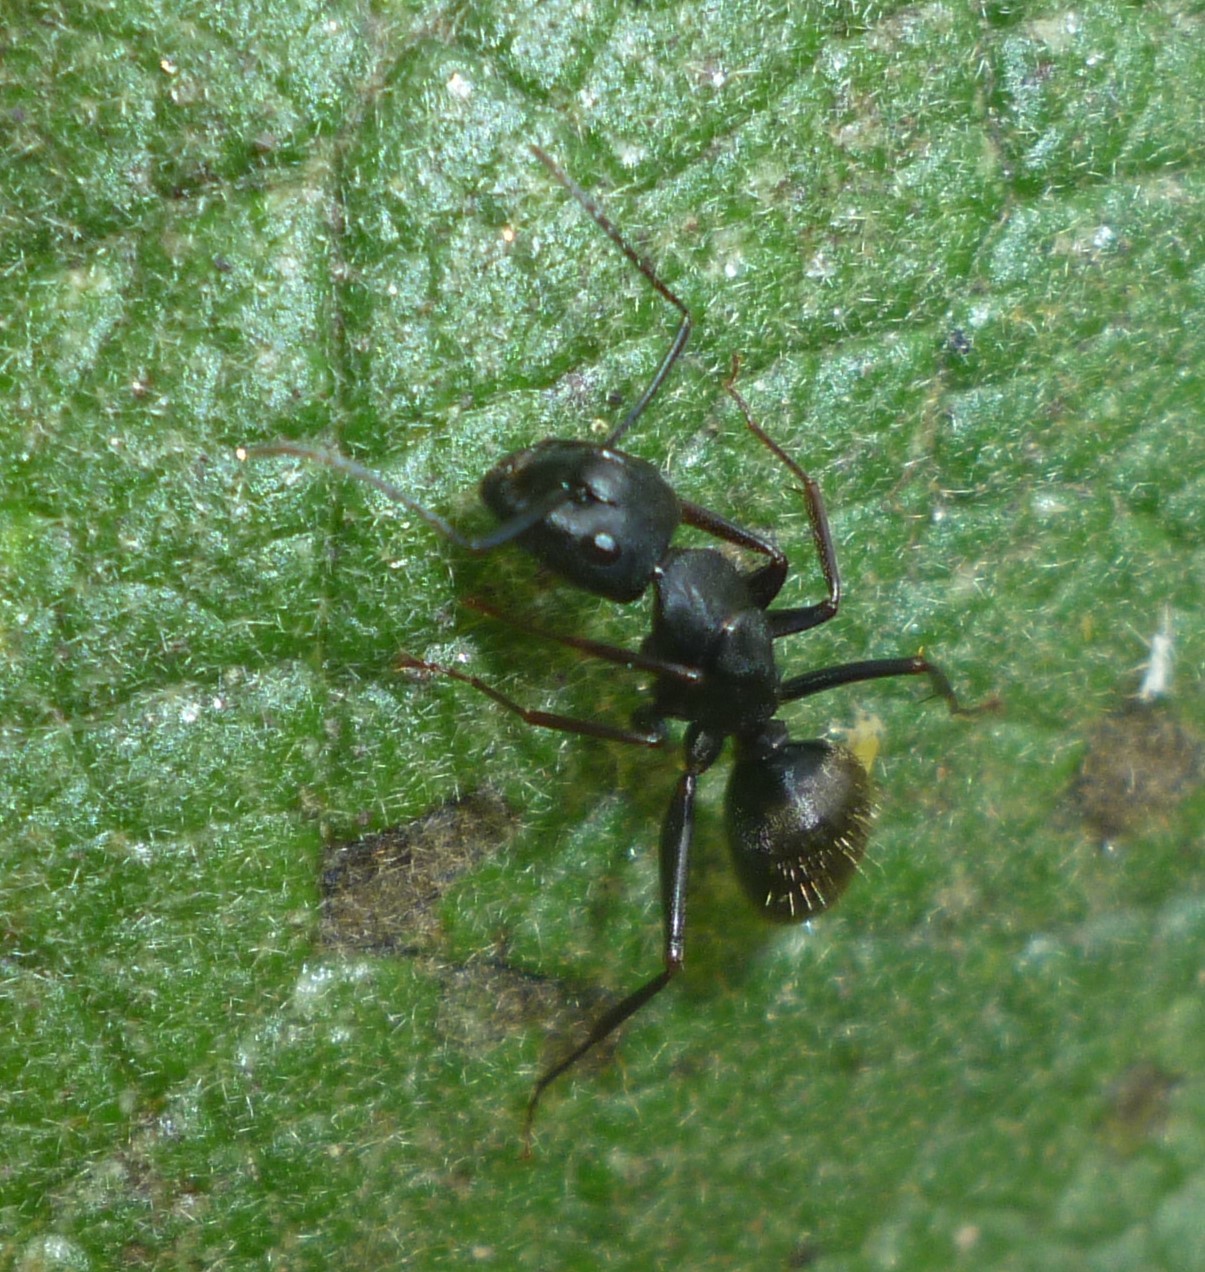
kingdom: Animalia
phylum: Arthropoda
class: Insecta
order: Hymenoptera
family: Formicidae
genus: Camponotus
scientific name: Camponotus pennsylvanicus
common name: Black carpenter ant
